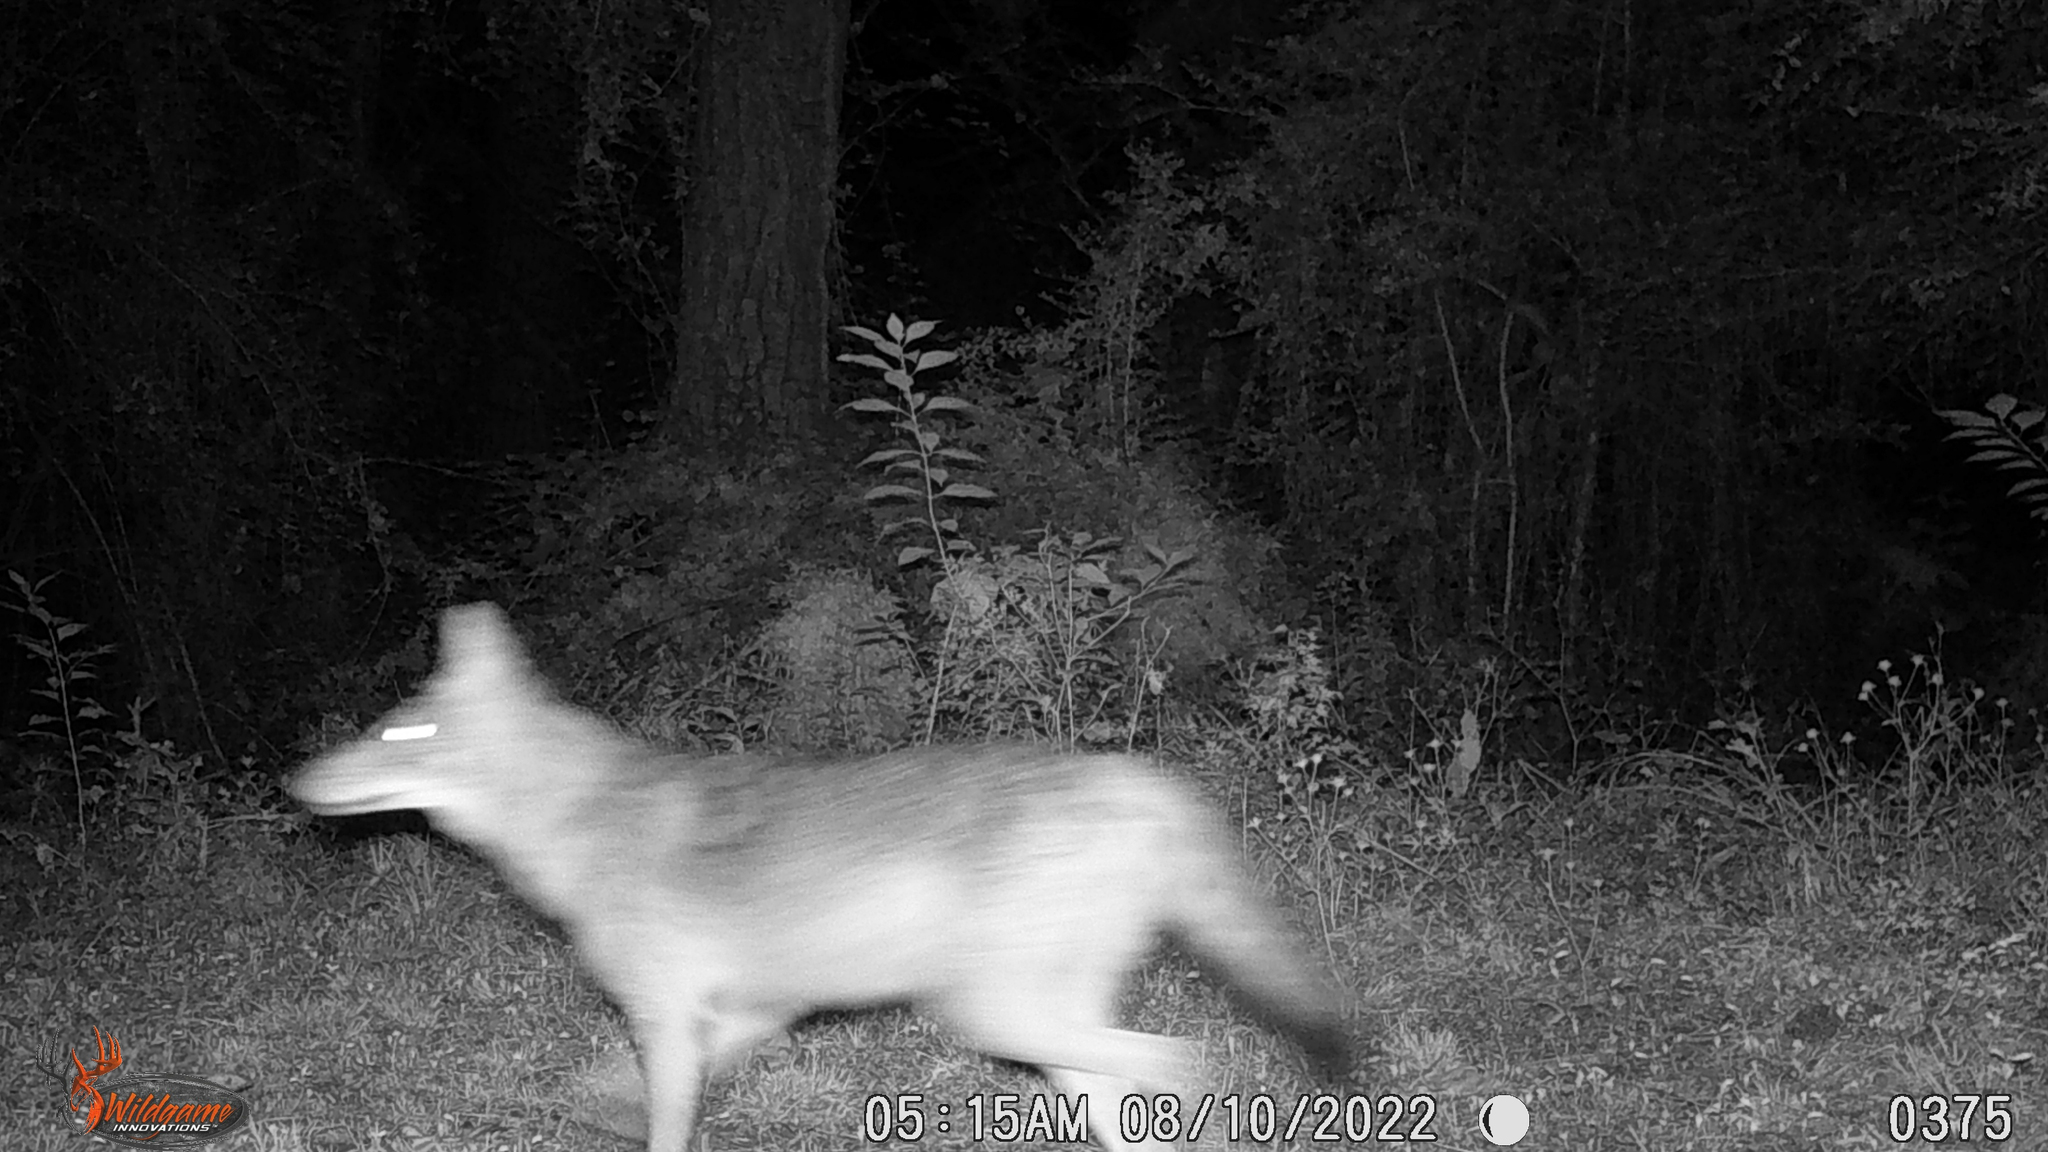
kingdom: Animalia
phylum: Chordata
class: Mammalia
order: Carnivora
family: Canidae
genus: Canis
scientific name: Canis latrans
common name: Coyote
